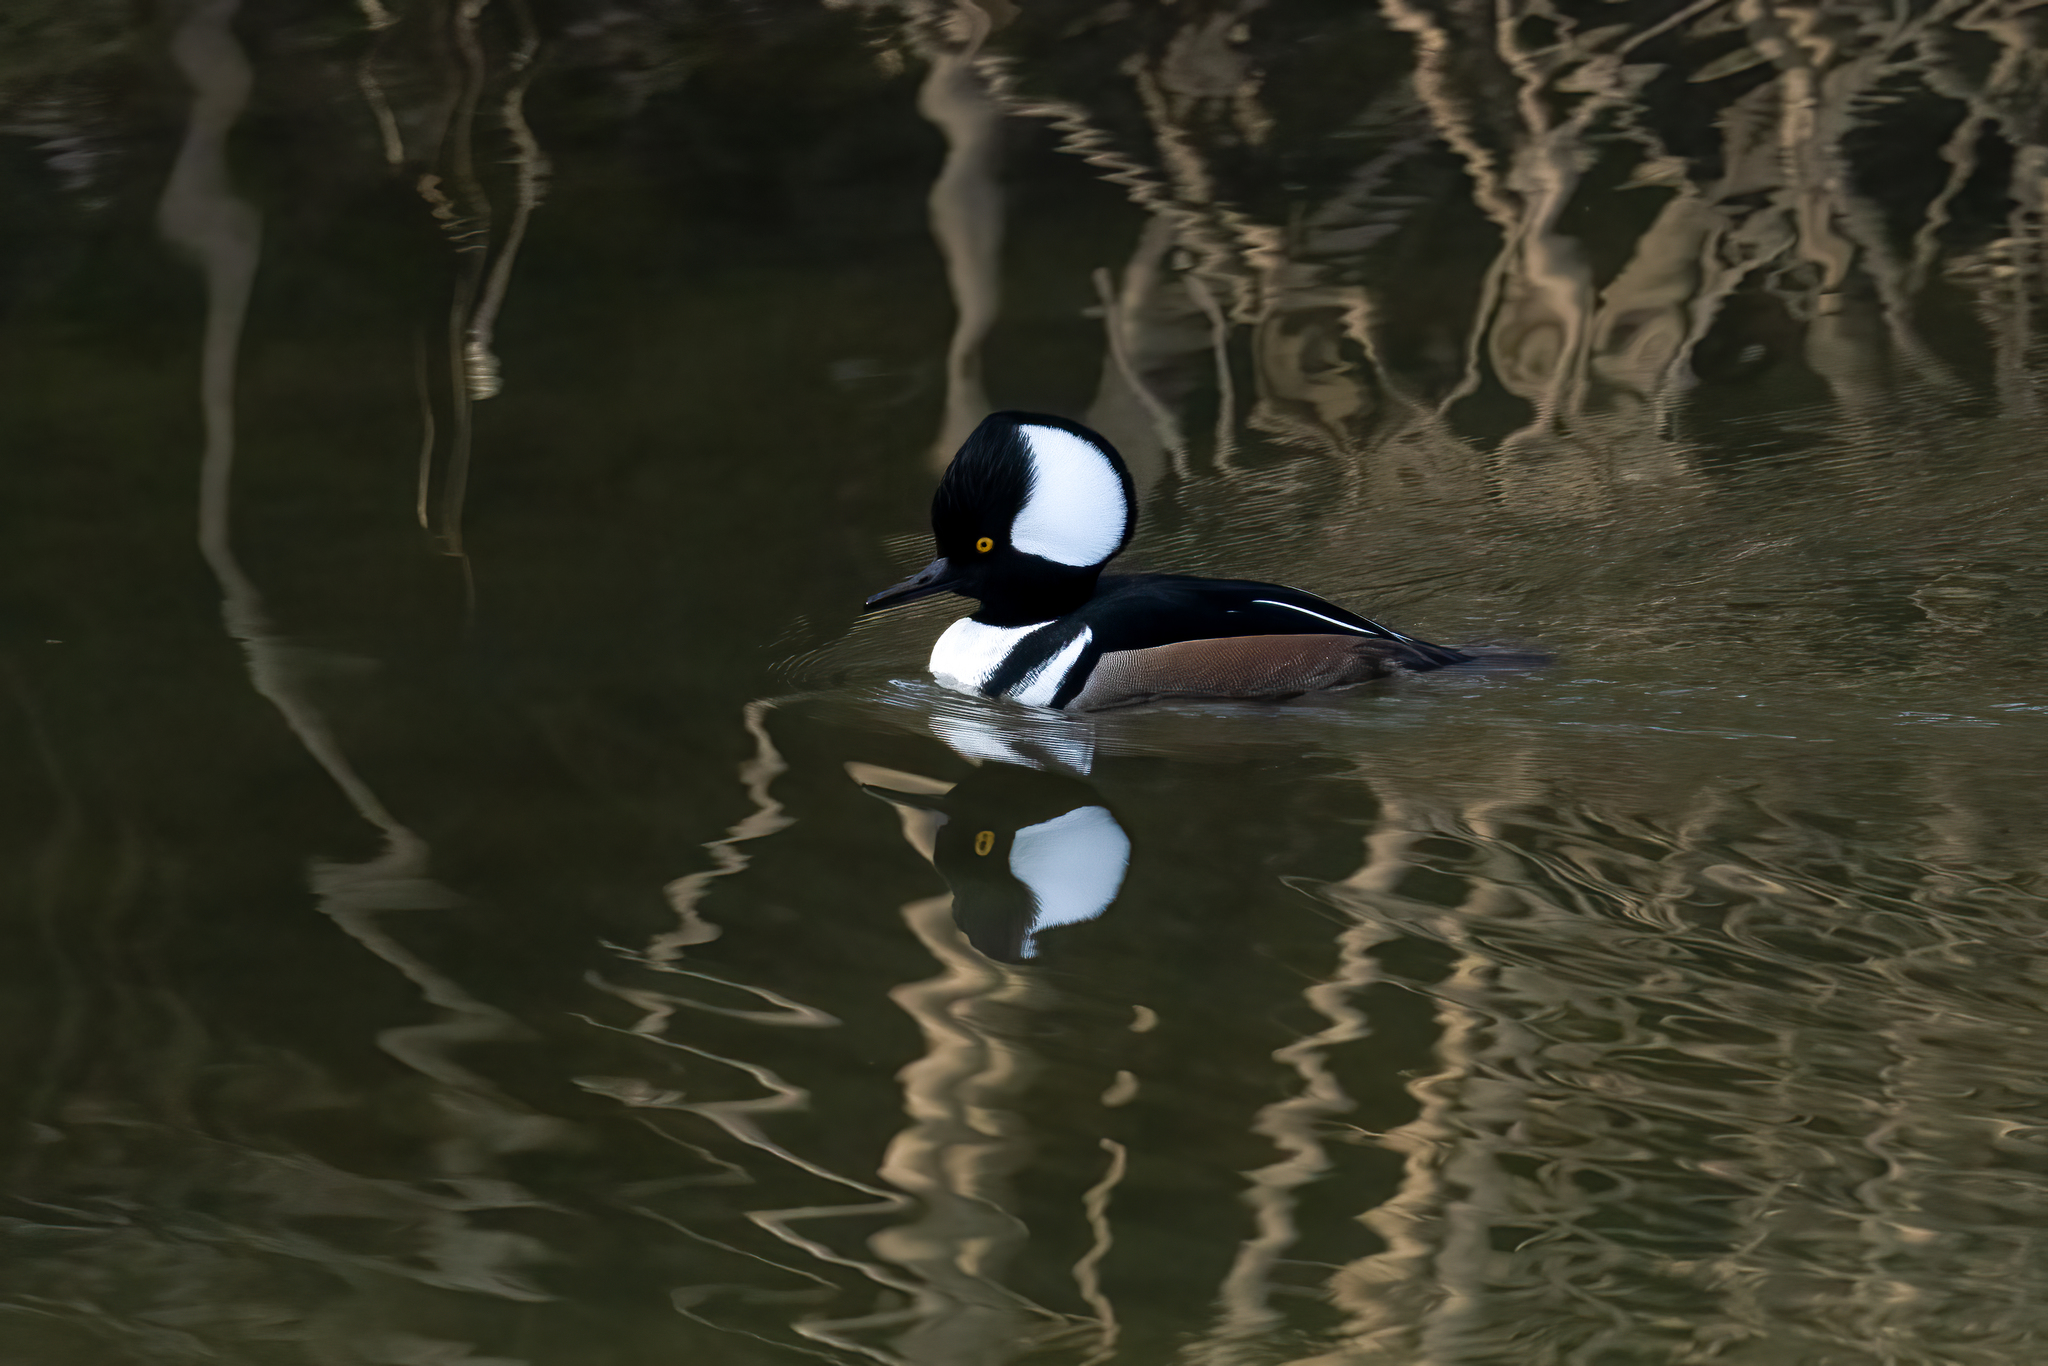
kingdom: Animalia
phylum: Chordata
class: Aves
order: Anseriformes
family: Anatidae
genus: Lophodytes
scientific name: Lophodytes cucullatus
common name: Hooded merganser
